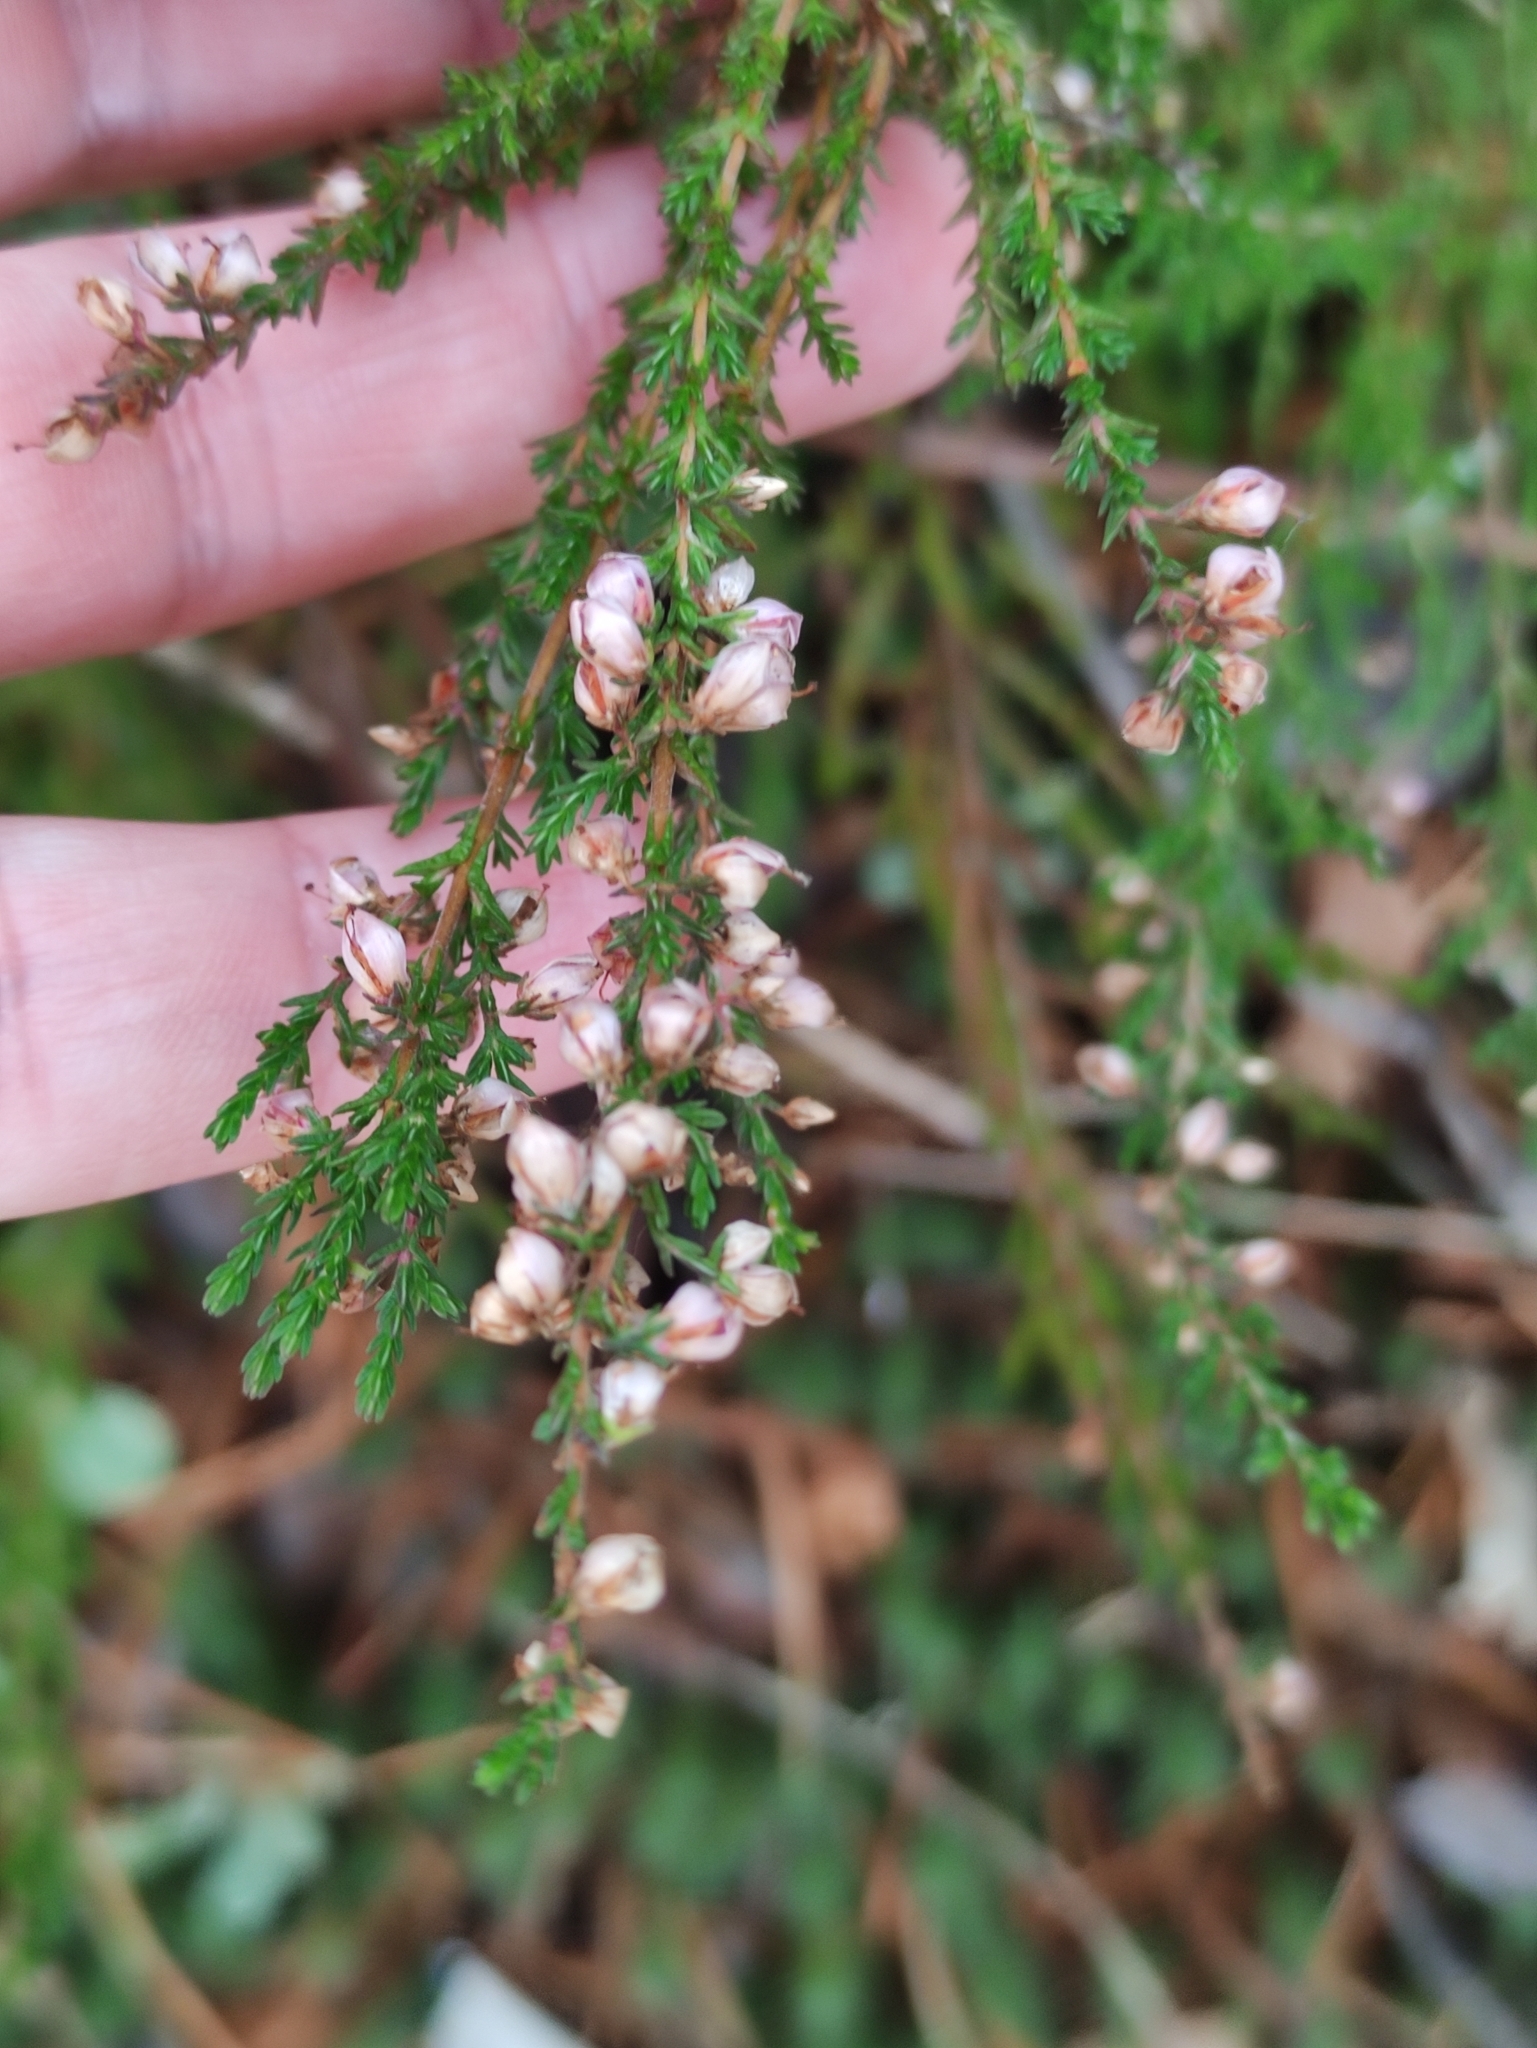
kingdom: Plantae
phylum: Tracheophyta
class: Magnoliopsida
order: Ericales
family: Ericaceae
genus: Calluna
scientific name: Calluna vulgaris
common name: Heather
